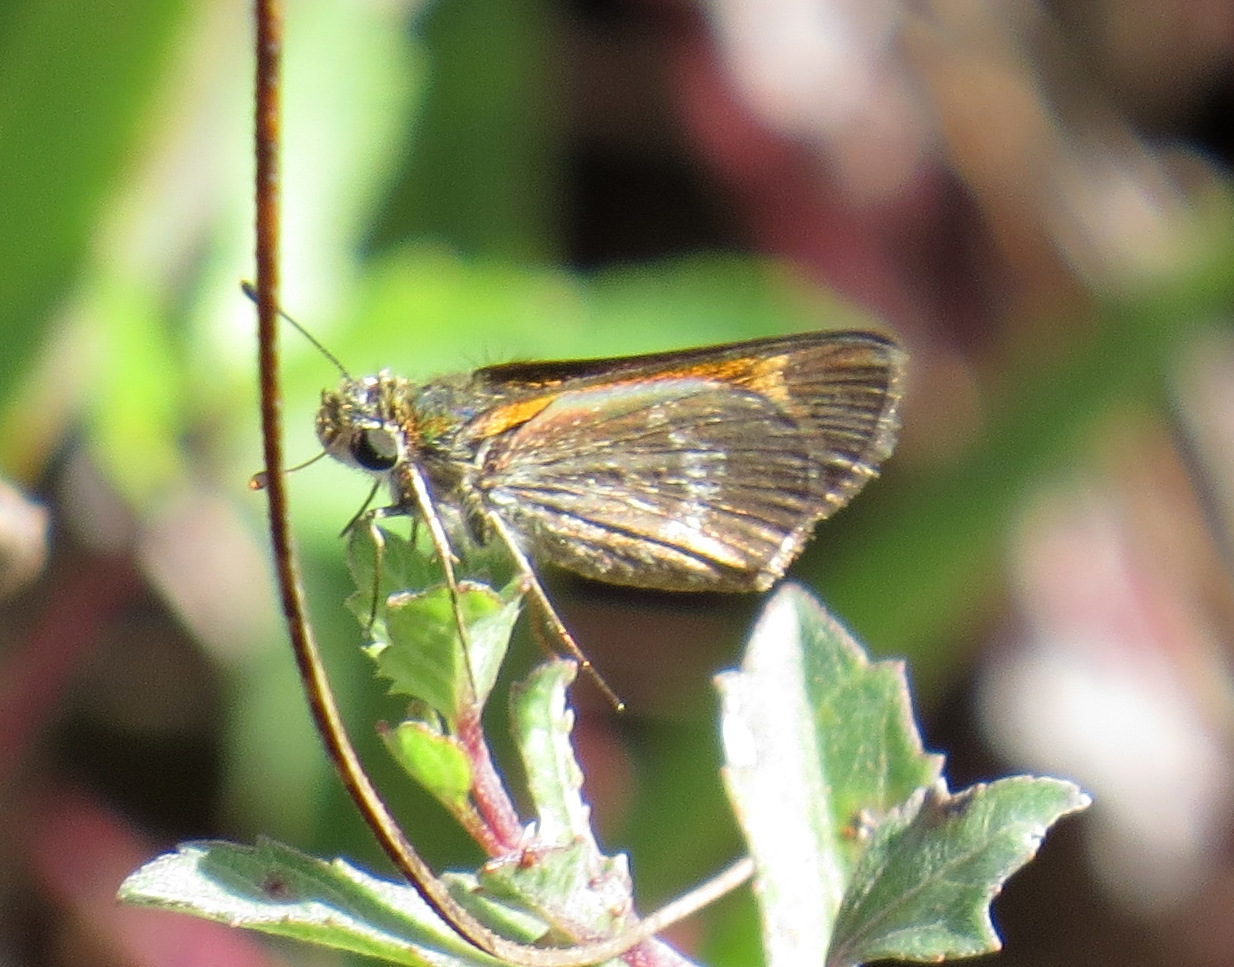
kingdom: Animalia
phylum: Arthropoda
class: Insecta
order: Lepidoptera
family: Hesperiidae
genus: Polites
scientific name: Polites baracoa
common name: Baracoa skipper
